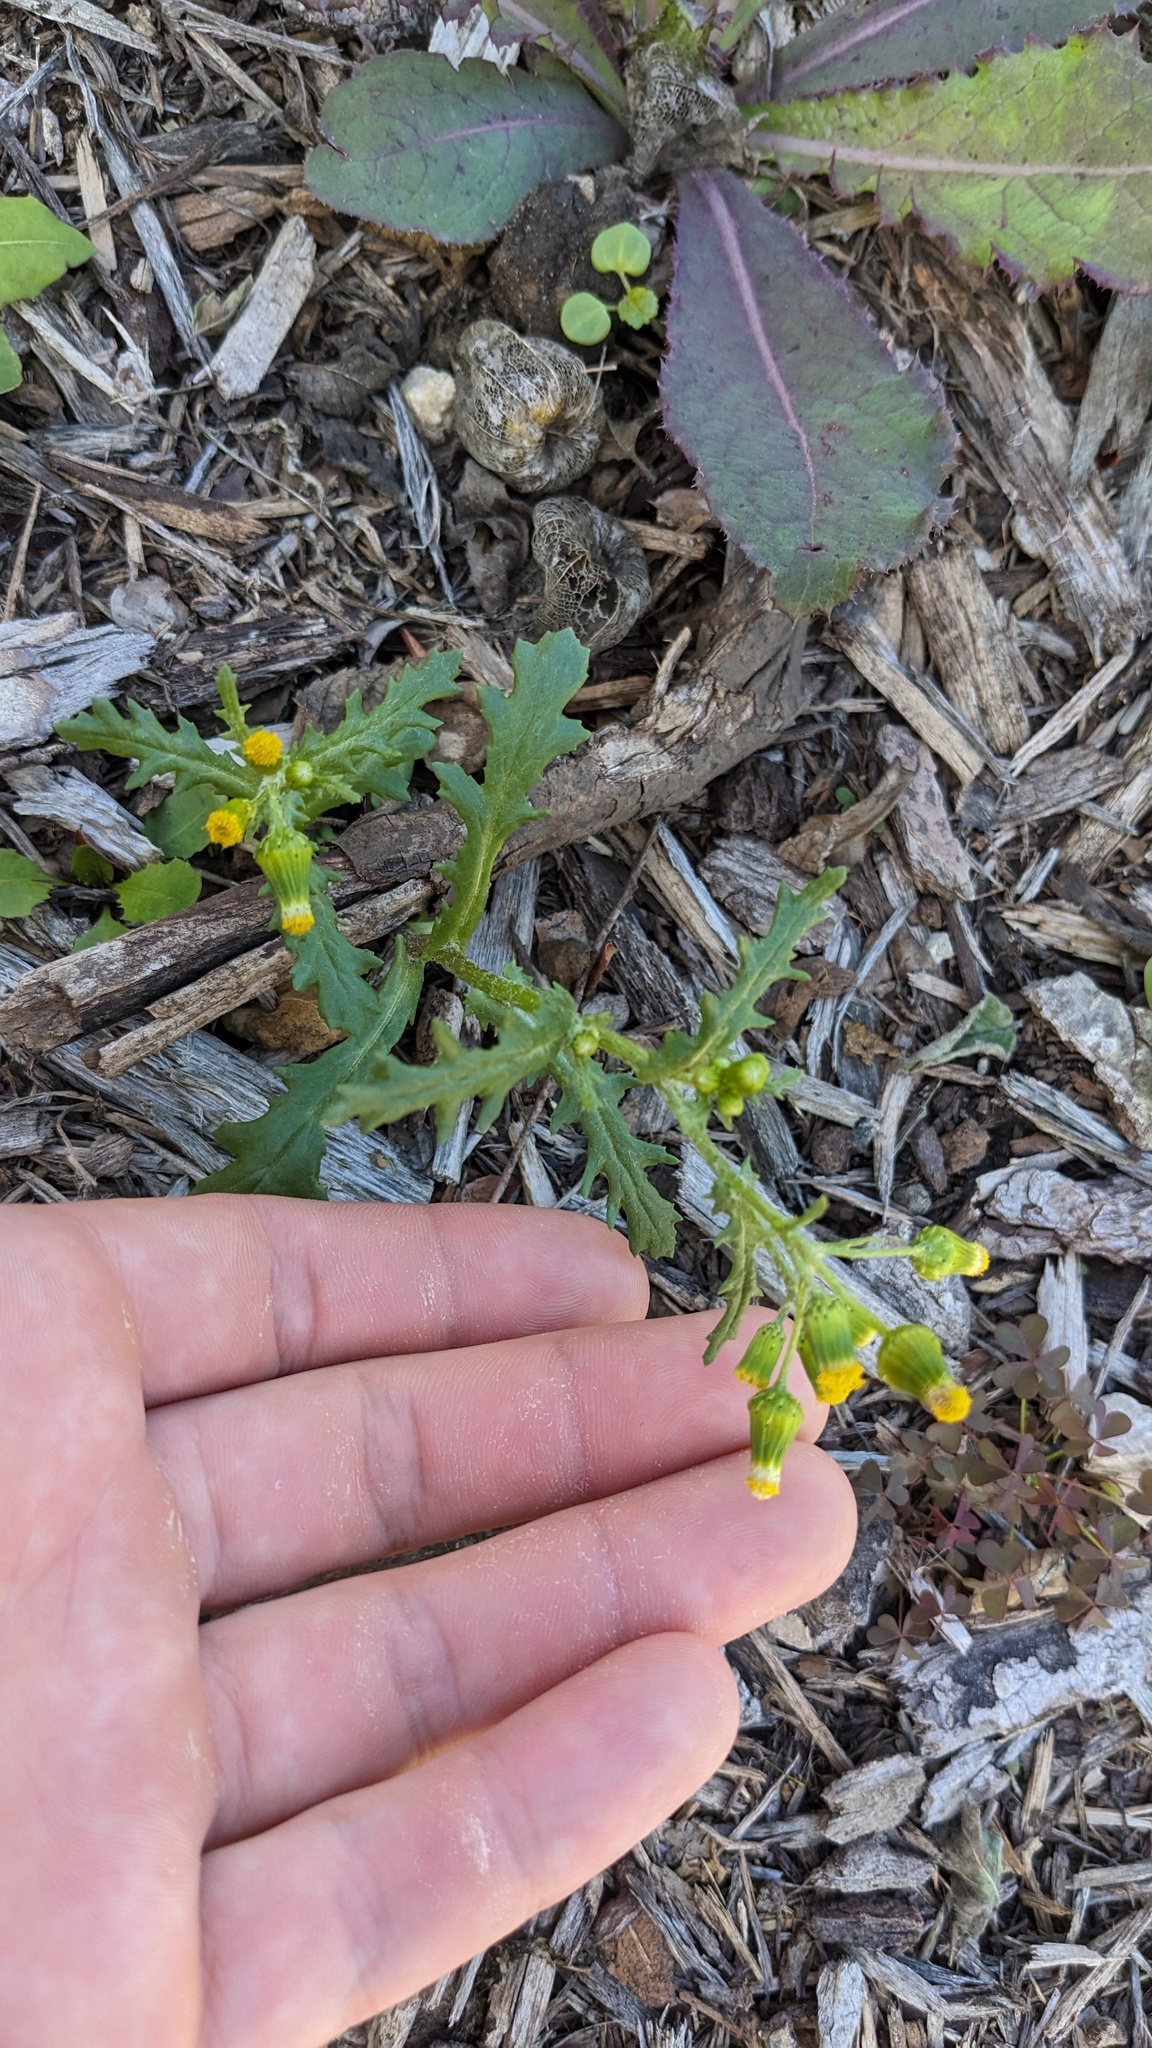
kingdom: Plantae
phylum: Tracheophyta
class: Magnoliopsida
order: Asterales
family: Asteraceae
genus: Senecio
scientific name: Senecio vulgaris
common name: Old-man-in-the-spring
